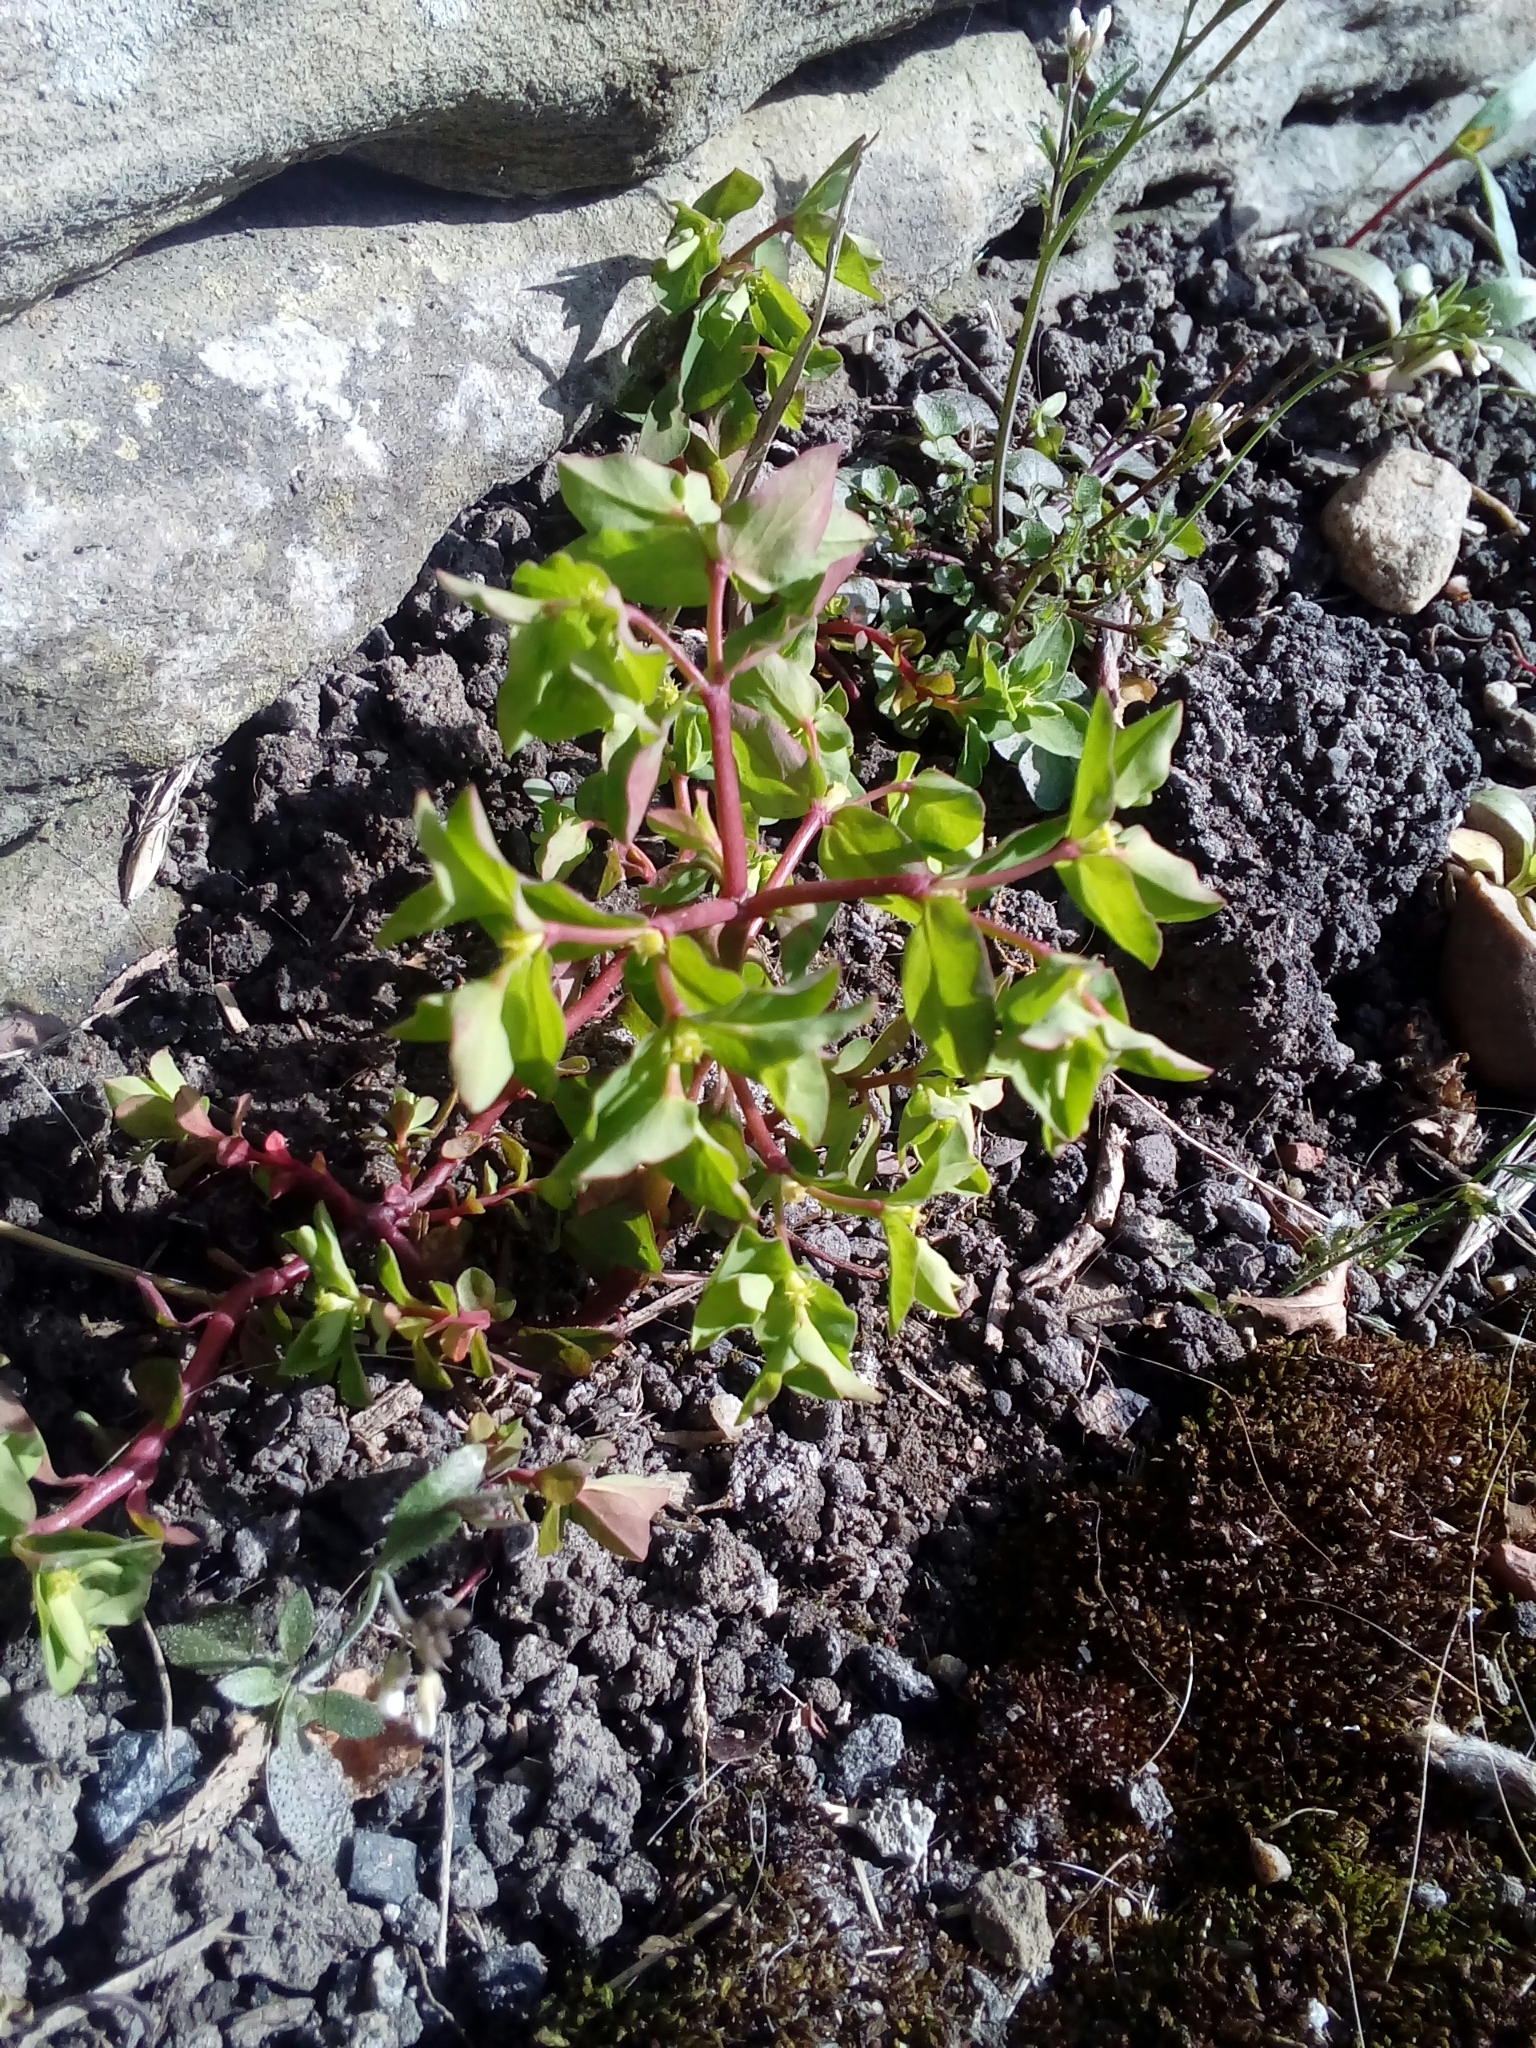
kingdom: Plantae
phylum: Tracheophyta
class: Magnoliopsida
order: Malpighiales
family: Euphorbiaceae
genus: Euphorbia
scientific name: Euphorbia peplus
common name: Petty spurge
